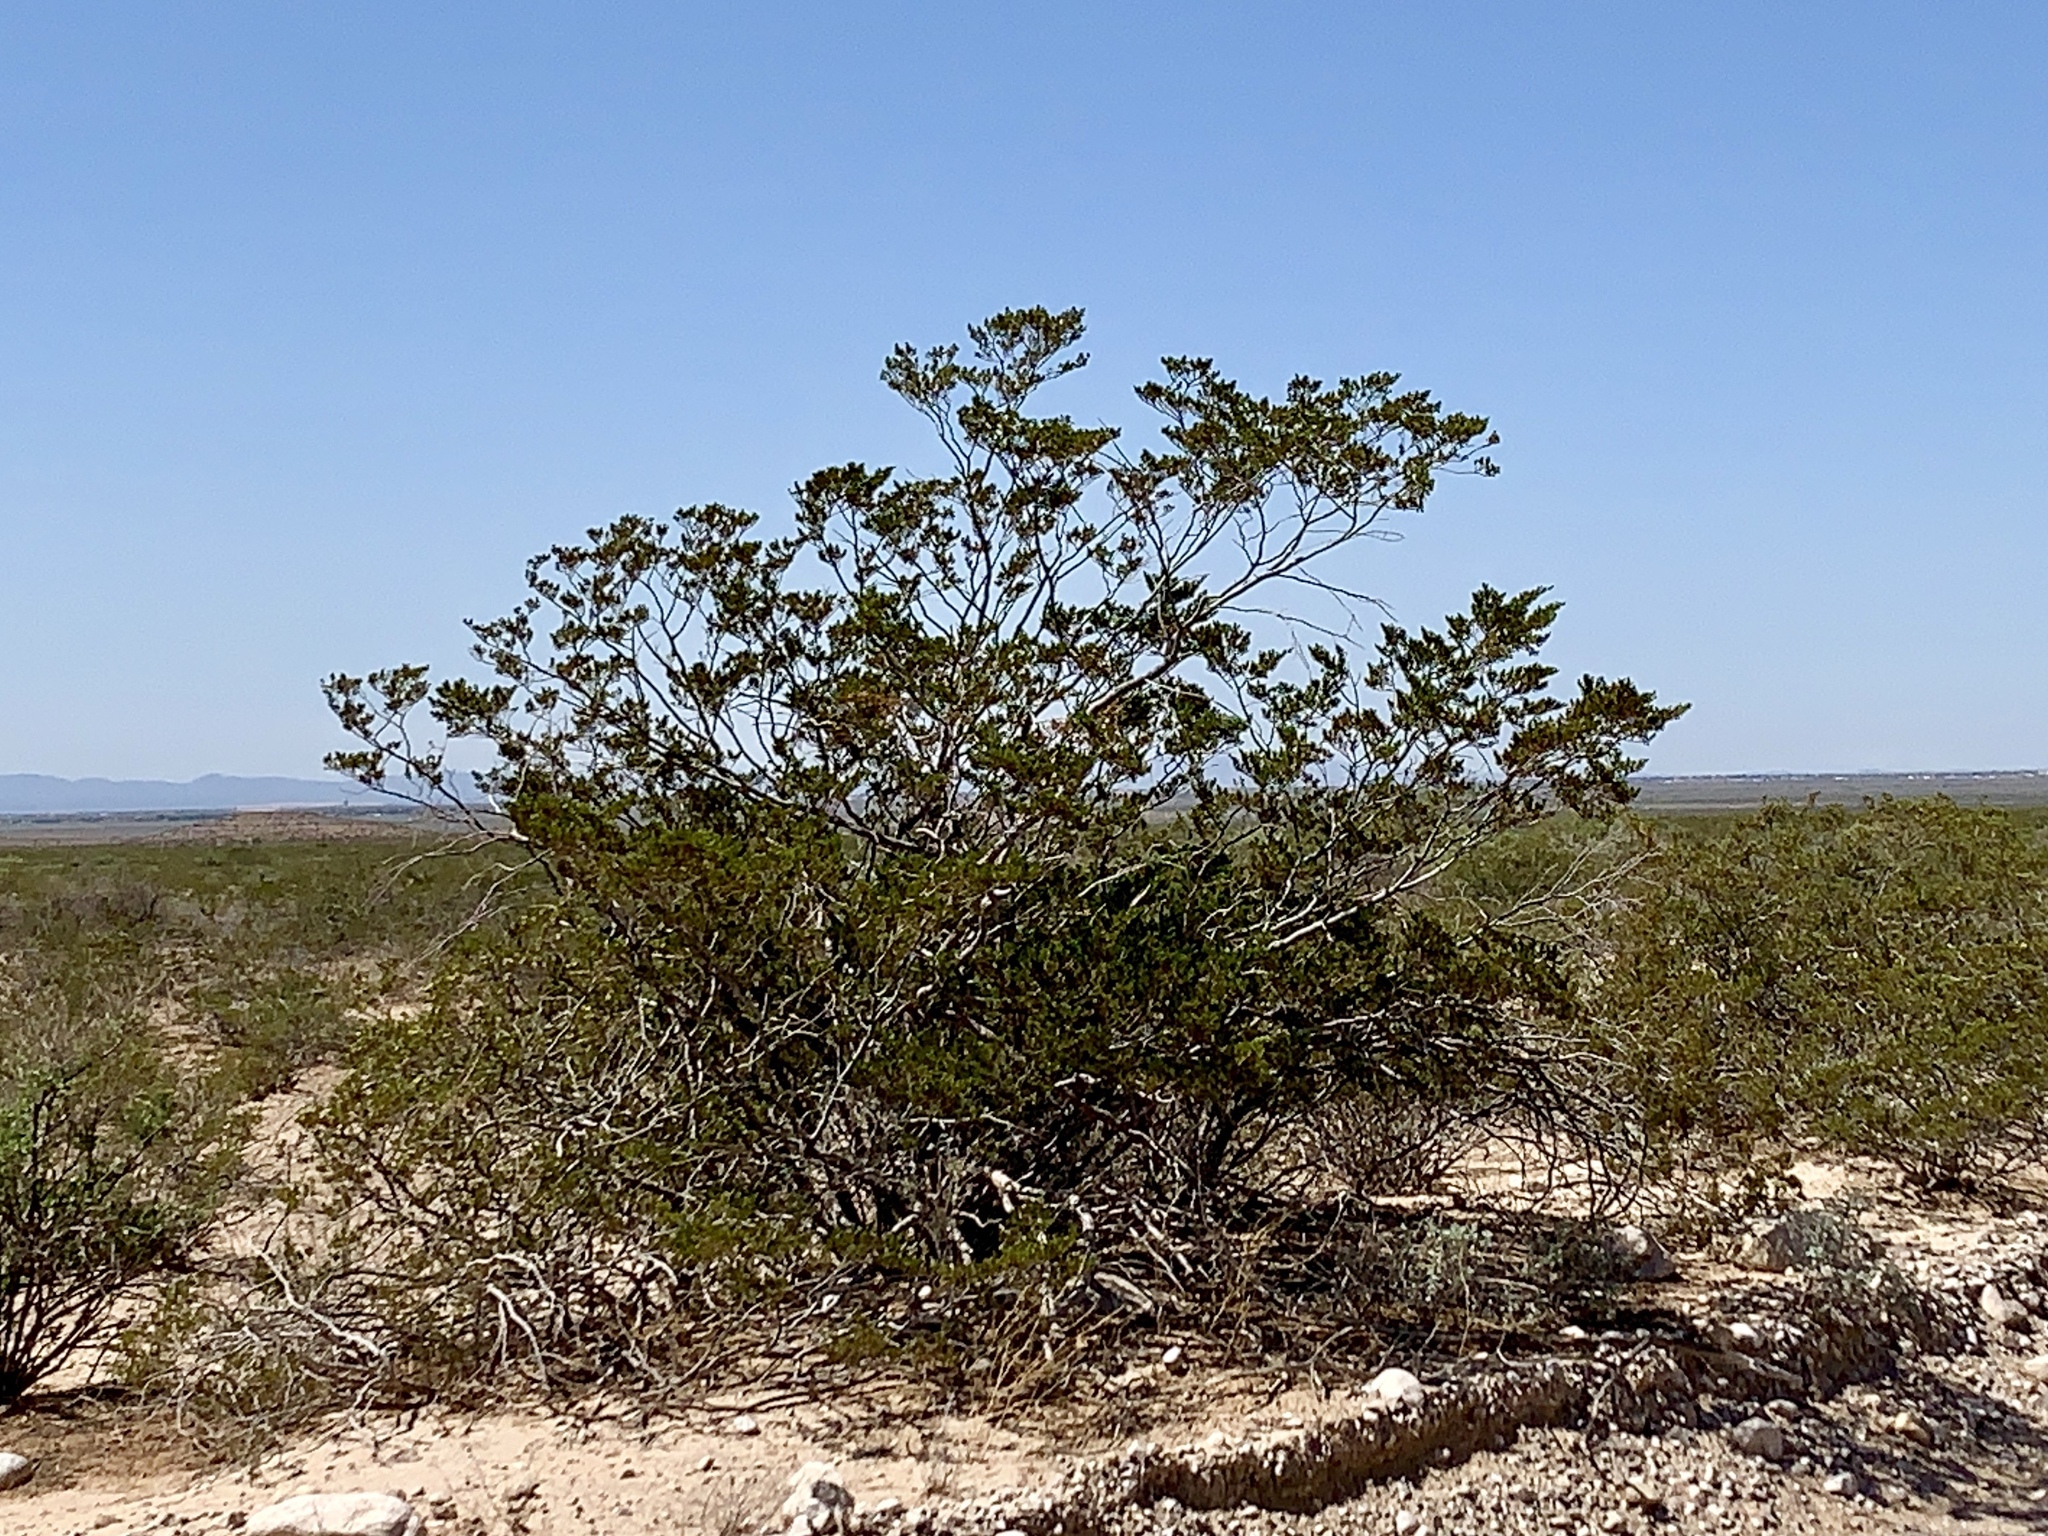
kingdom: Plantae
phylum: Tracheophyta
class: Magnoliopsida
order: Zygophyllales
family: Zygophyllaceae
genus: Larrea
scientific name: Larrea tridentata
